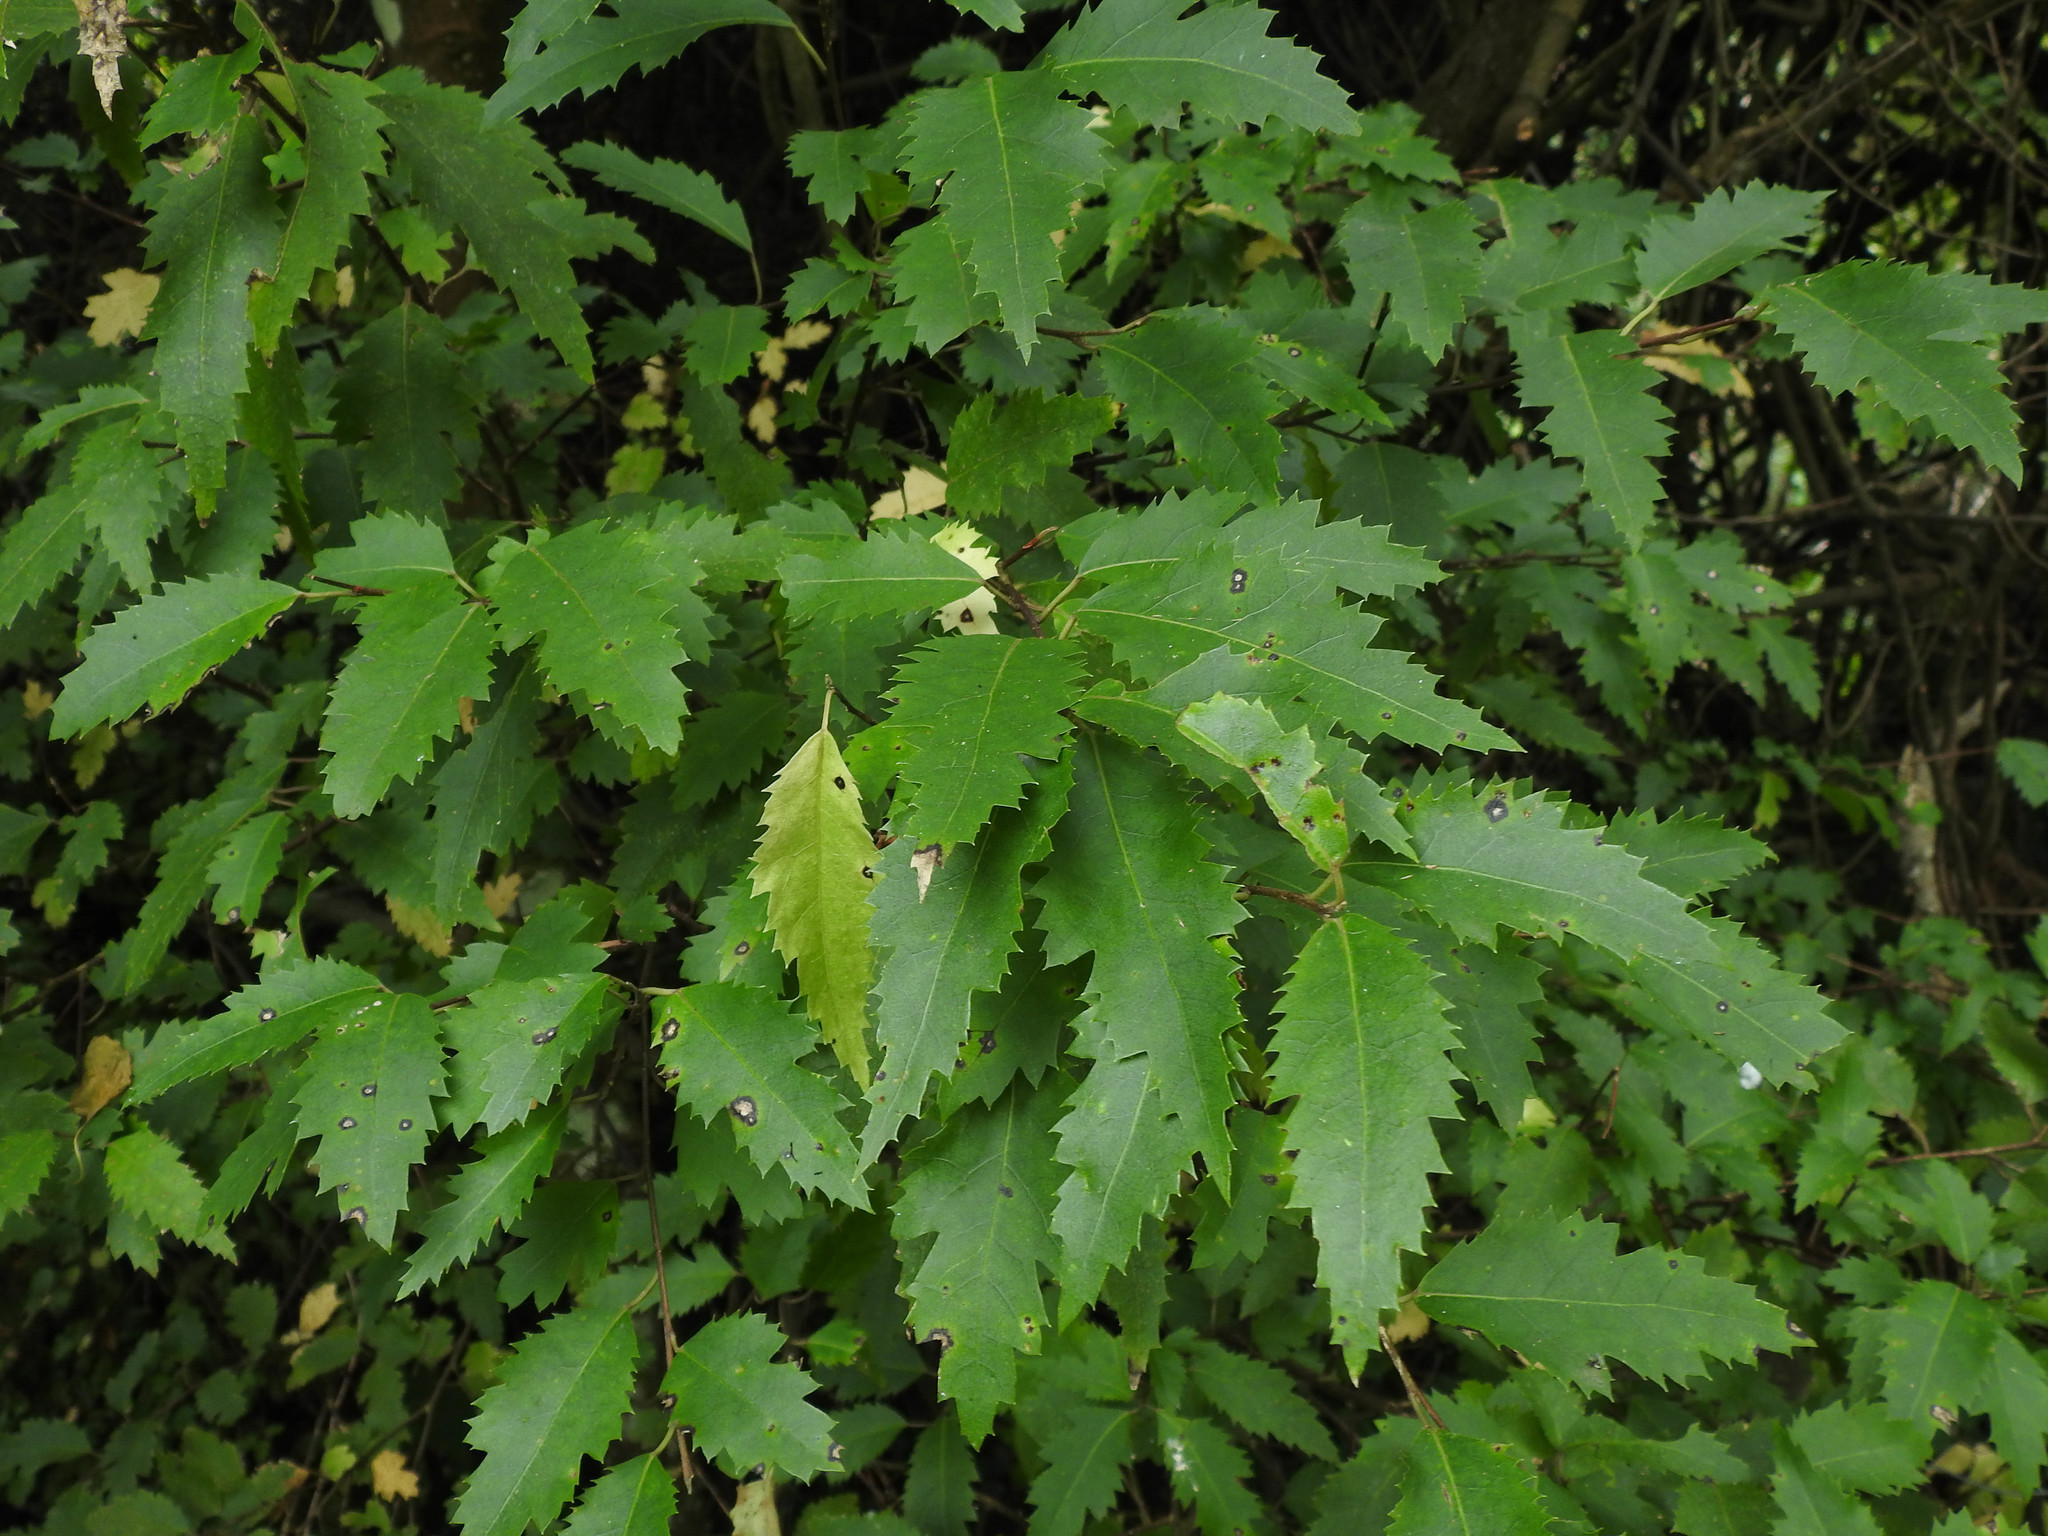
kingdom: Plantae
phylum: Tracheophyta
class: Magnoliopsida
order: Malvales
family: Malvaceae
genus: Hoheria
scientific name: Hoheria sexstylosa
